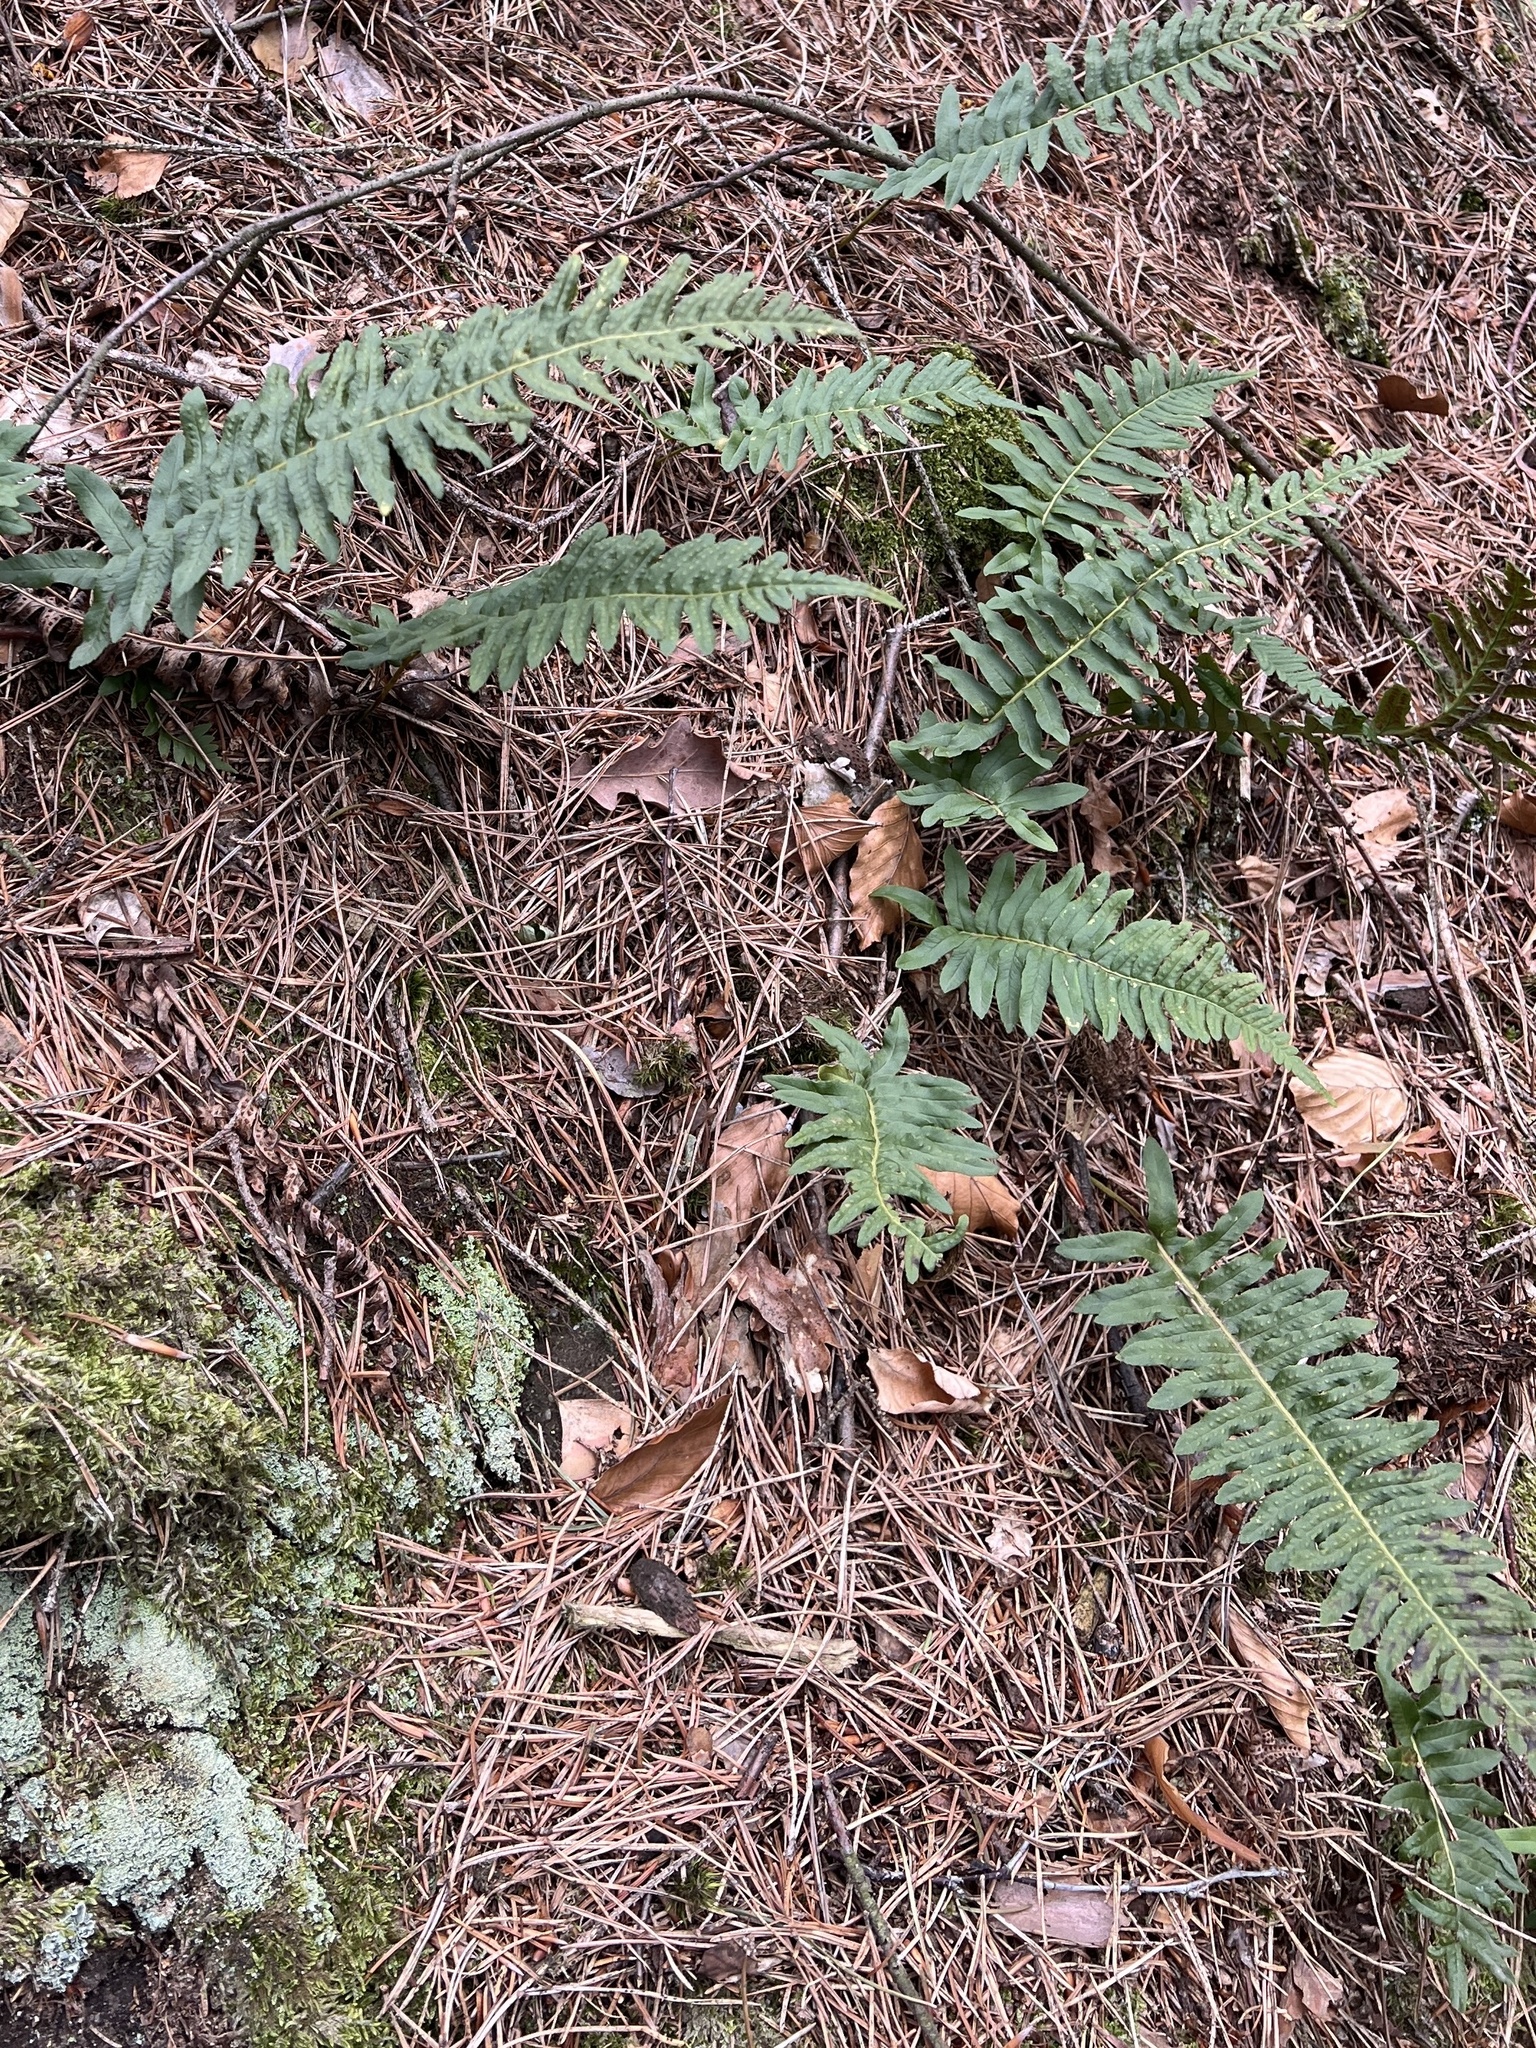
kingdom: Plantae
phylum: Tracheophyta
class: Polypodiopsida
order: Polypodiales
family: Polypodiaceae
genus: Polypodium
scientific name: Polypodium vulgare
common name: Common polypody
